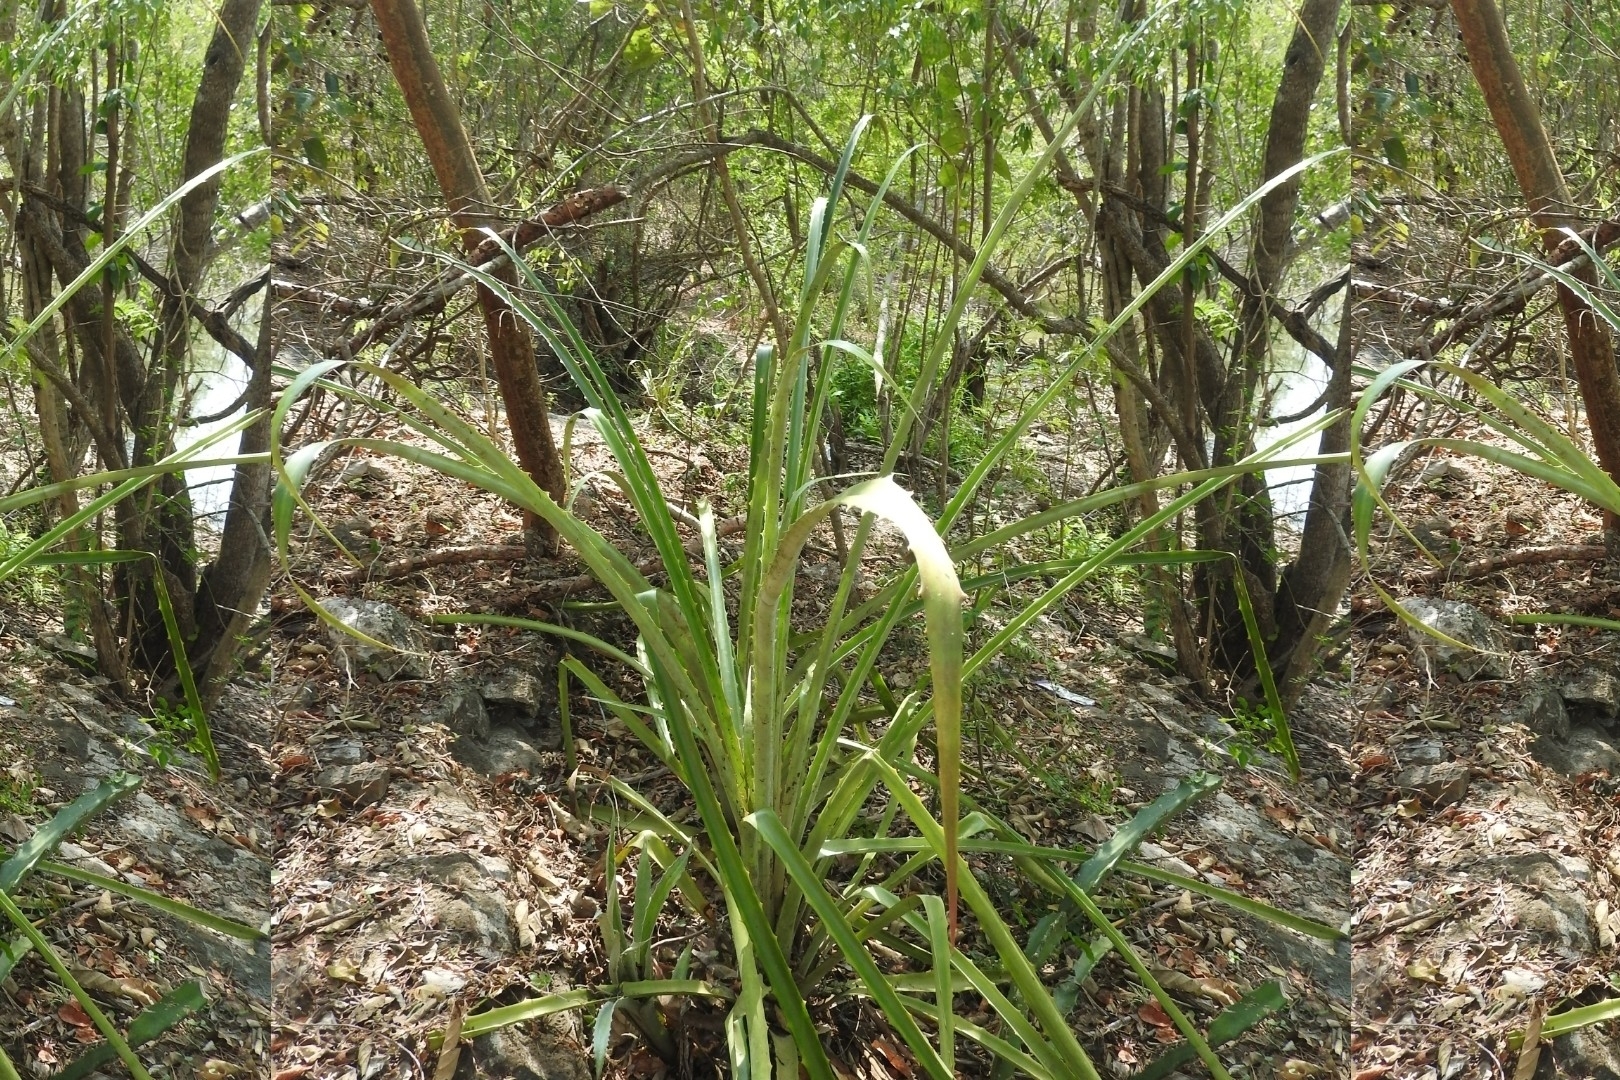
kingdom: Plantae
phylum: Tracheophyta
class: Liliopsida
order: Poales
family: Bromeliaceae
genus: Bromelia
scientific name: Bromelia pinguin
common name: Pinguin
